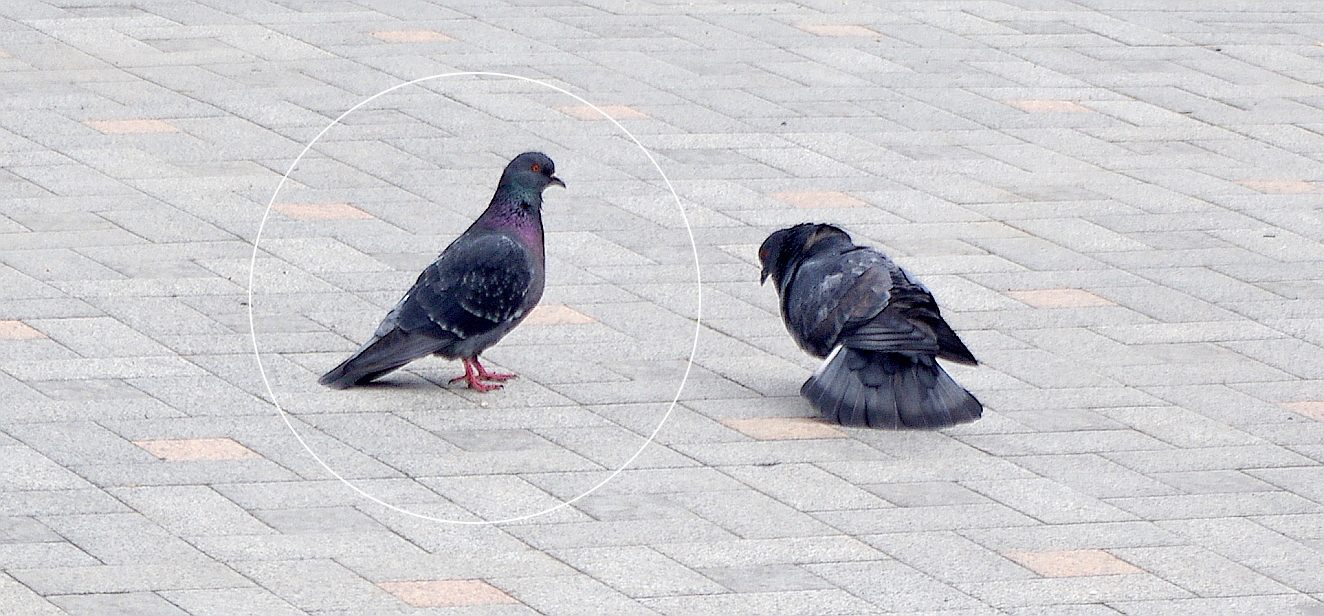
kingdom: Animalia
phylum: Chordata
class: Aves
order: Columbiformes
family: Columbidae
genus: Columba
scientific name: Columba livia
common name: Rock pigeon
